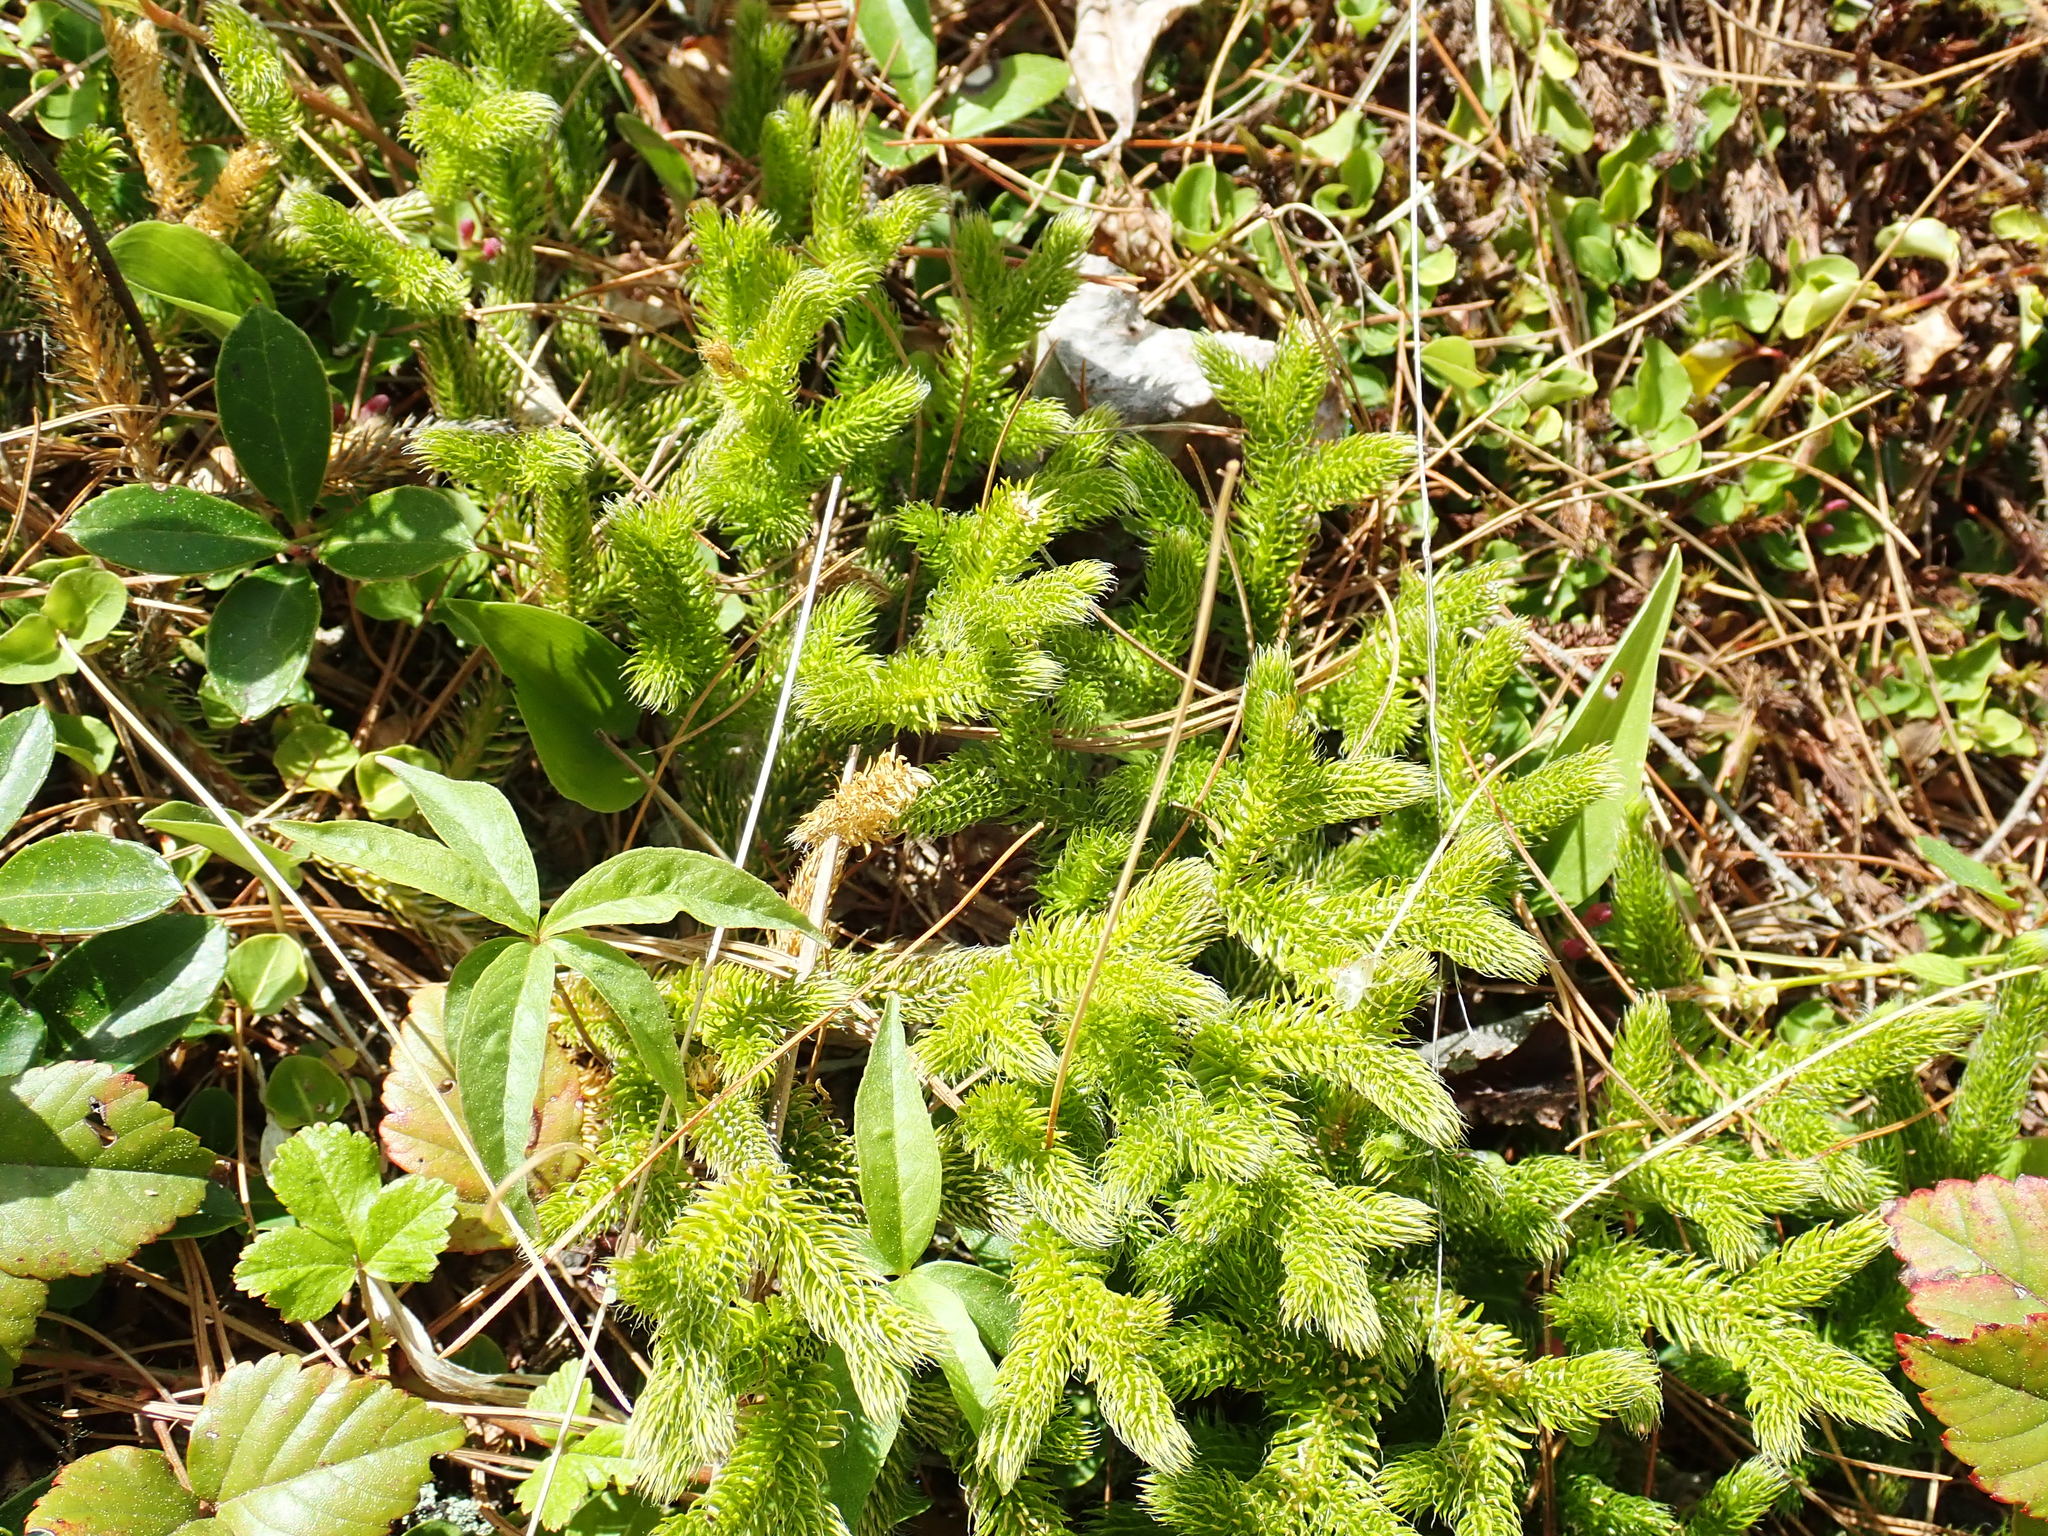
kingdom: Plantae
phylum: Tracheophyta
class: Lycopodiopsida
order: Lycopodiales
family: Lycopodiaceae
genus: Lycopodium
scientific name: Lycopodium clavatum
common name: Stag's-horn clubmoss
